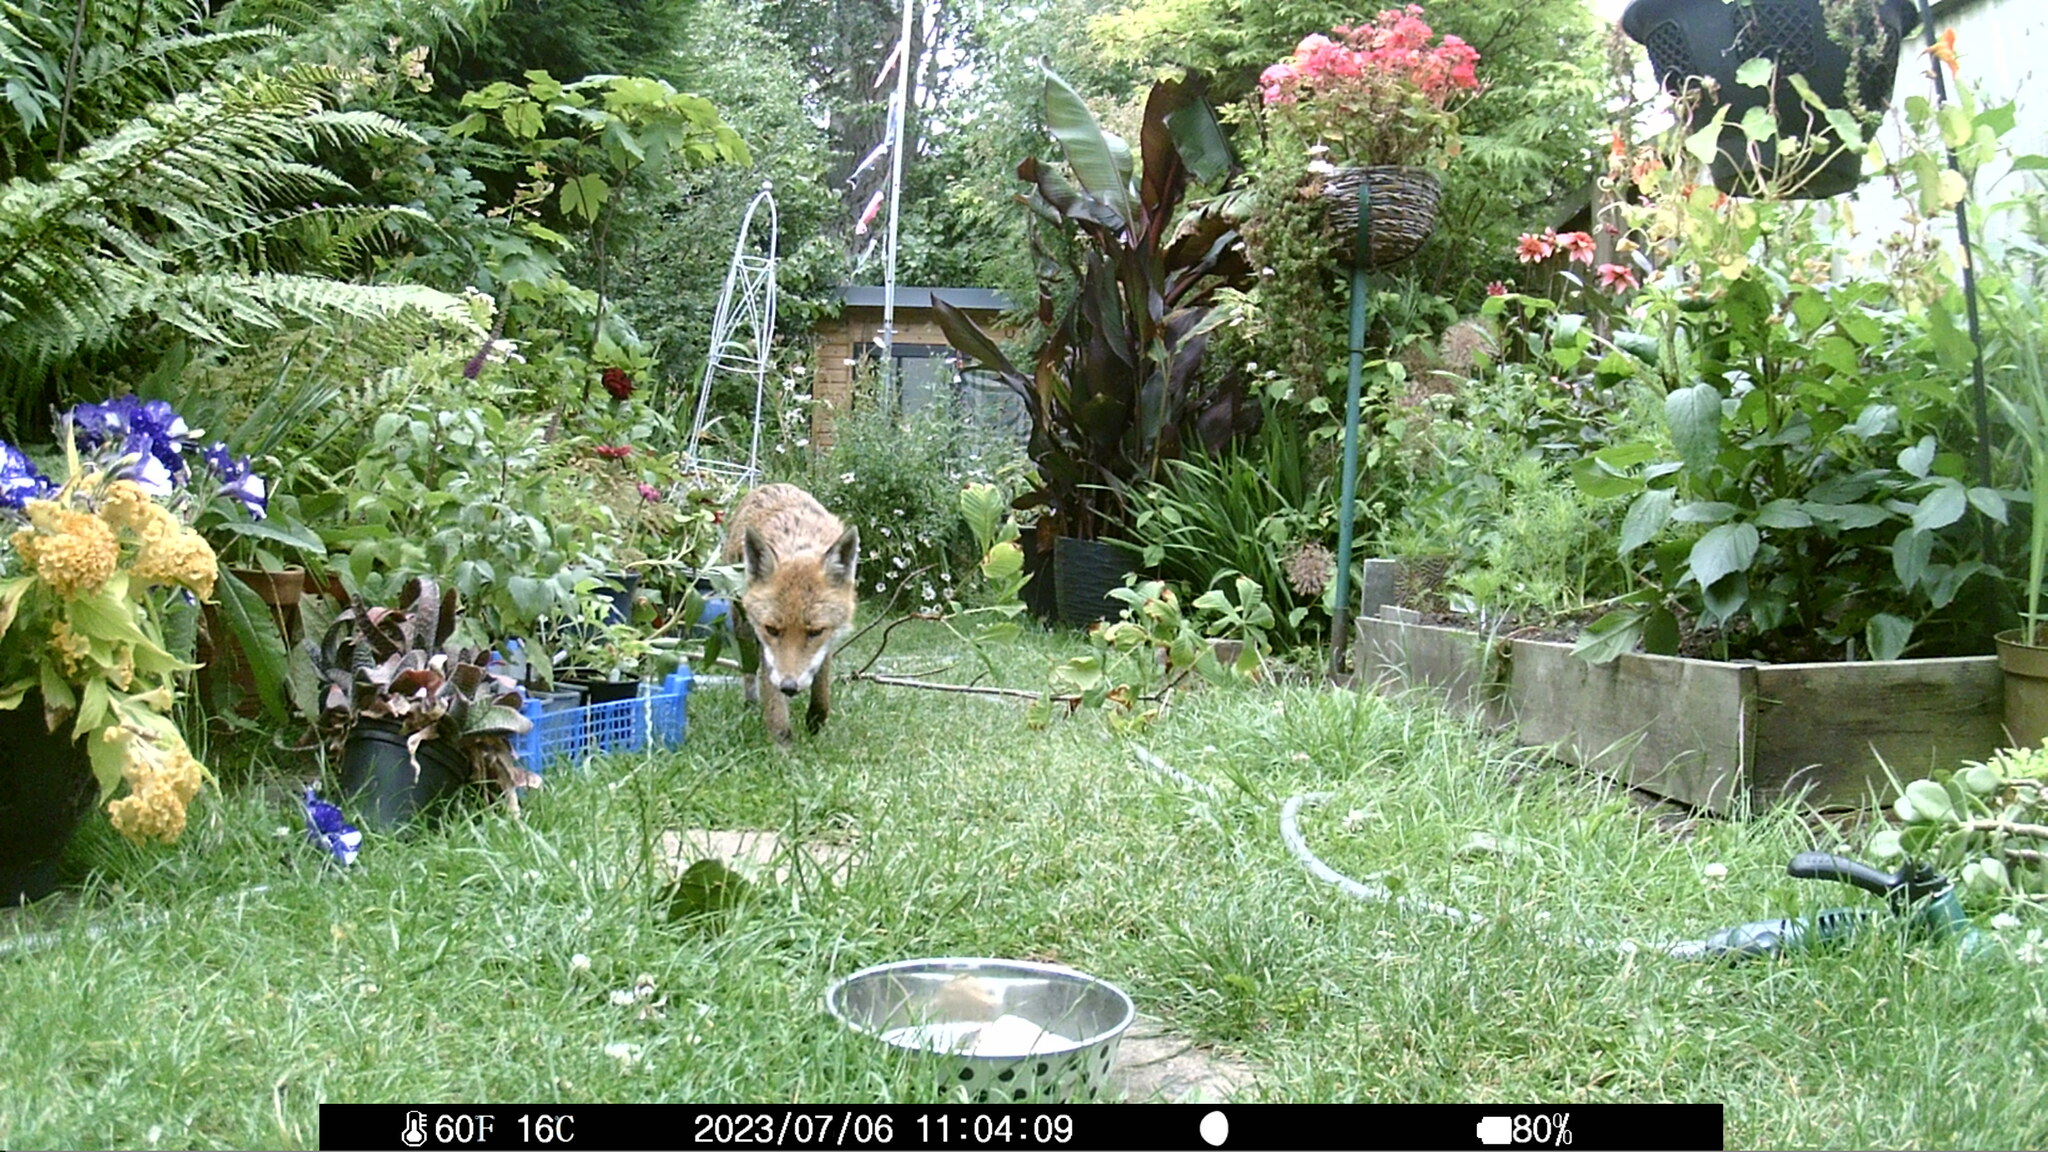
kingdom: Animalia
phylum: Chordata
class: Mammalia
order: Carnivora
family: Canidae
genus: Vulpes
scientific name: Vulpes vulpes
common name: Red fox
